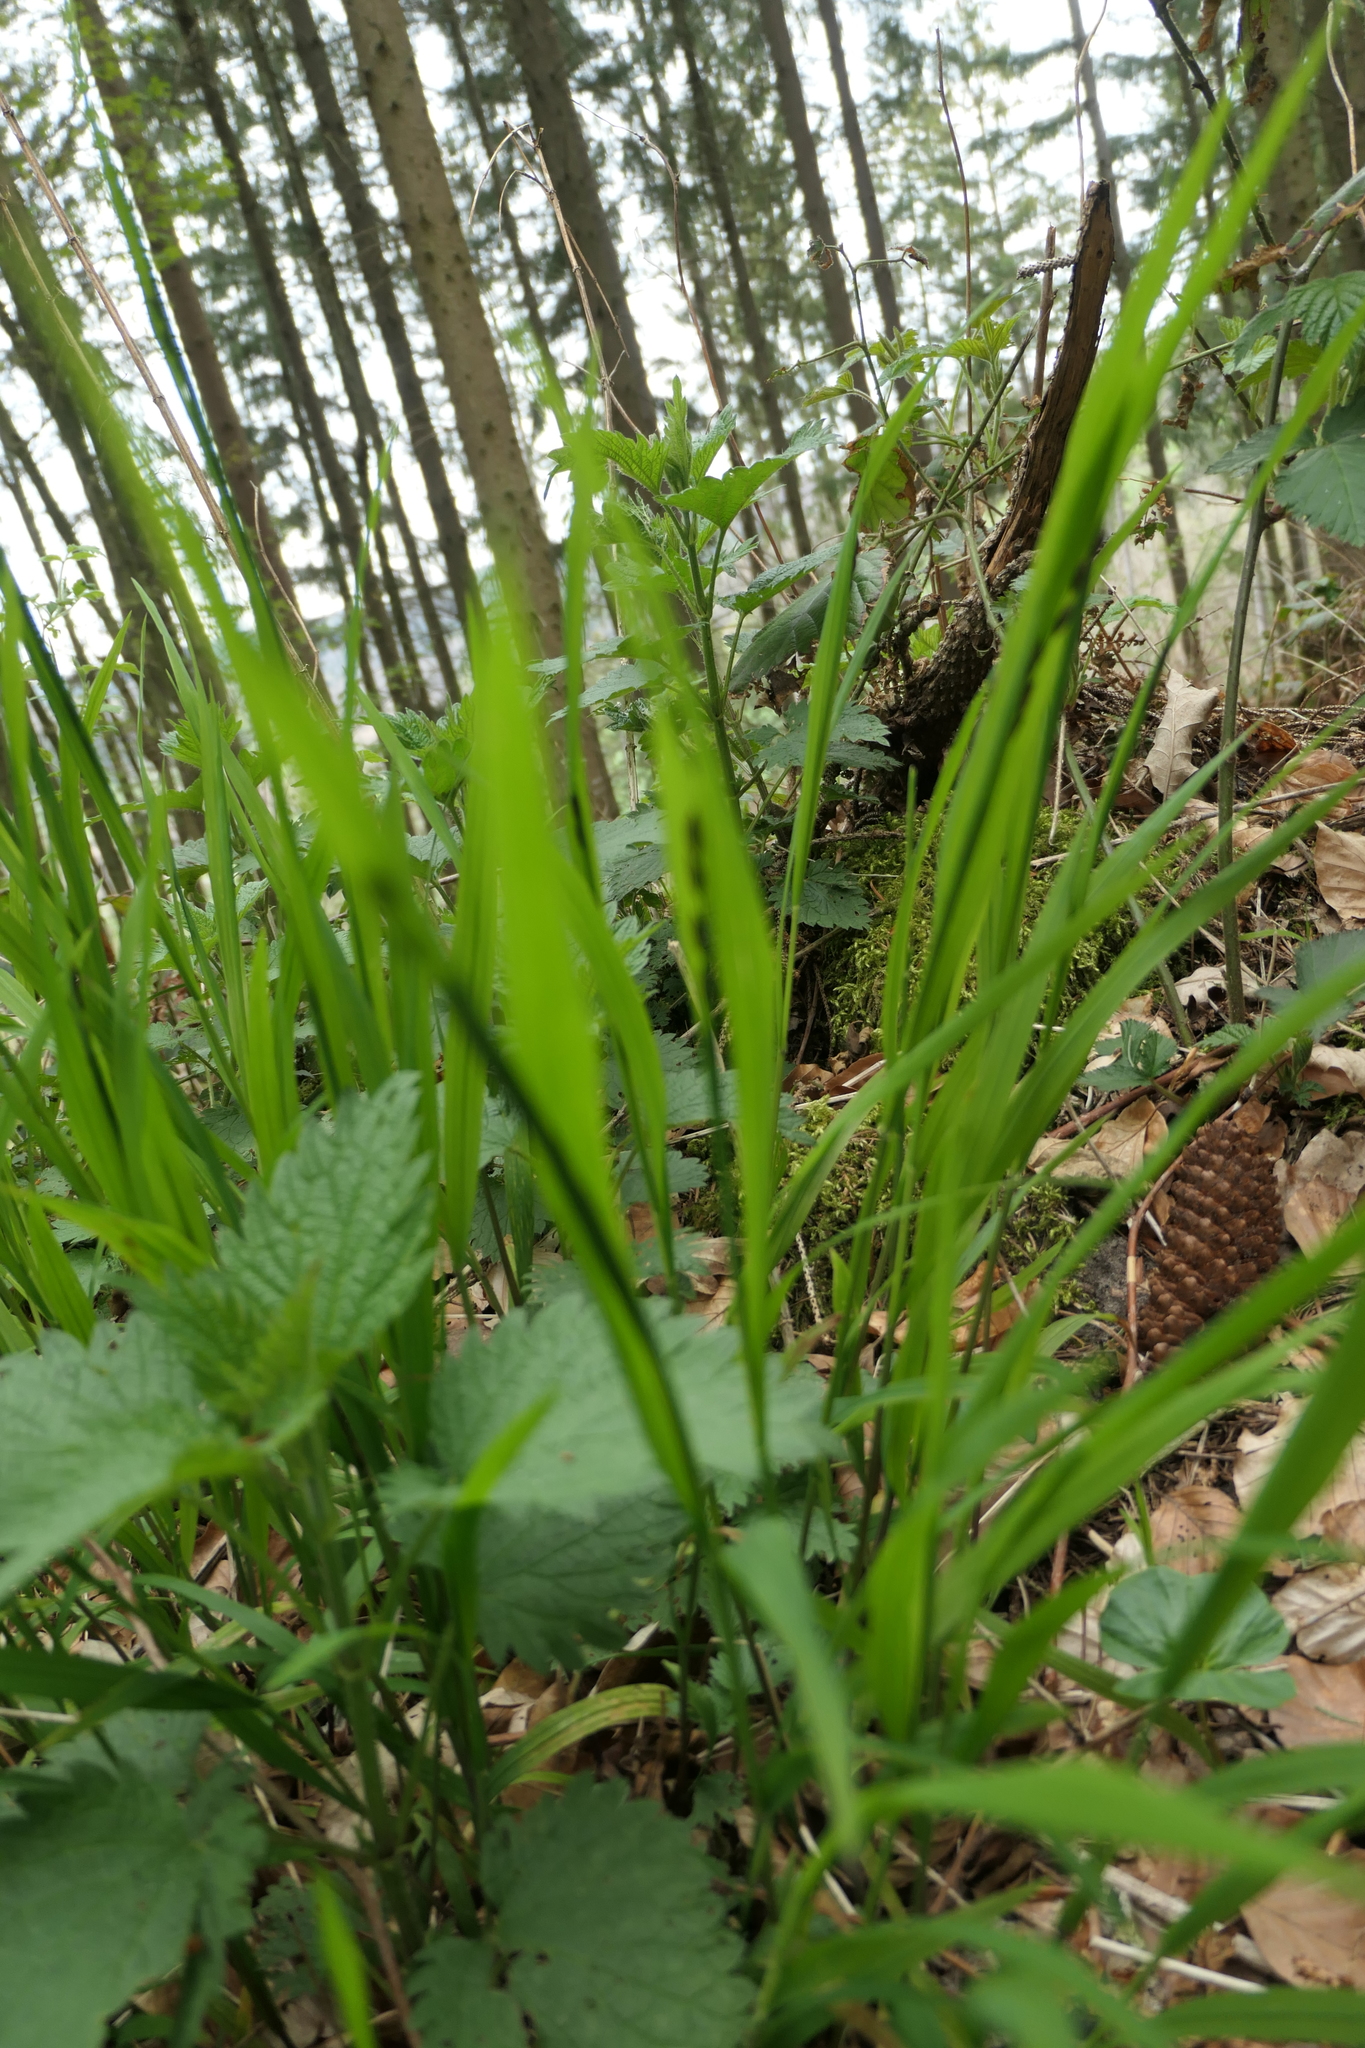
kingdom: Plantae
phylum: Tracheophyta
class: Liliopsida
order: Poales
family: Poaceae
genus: Melica
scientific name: Melica uniflora
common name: Wood melick
